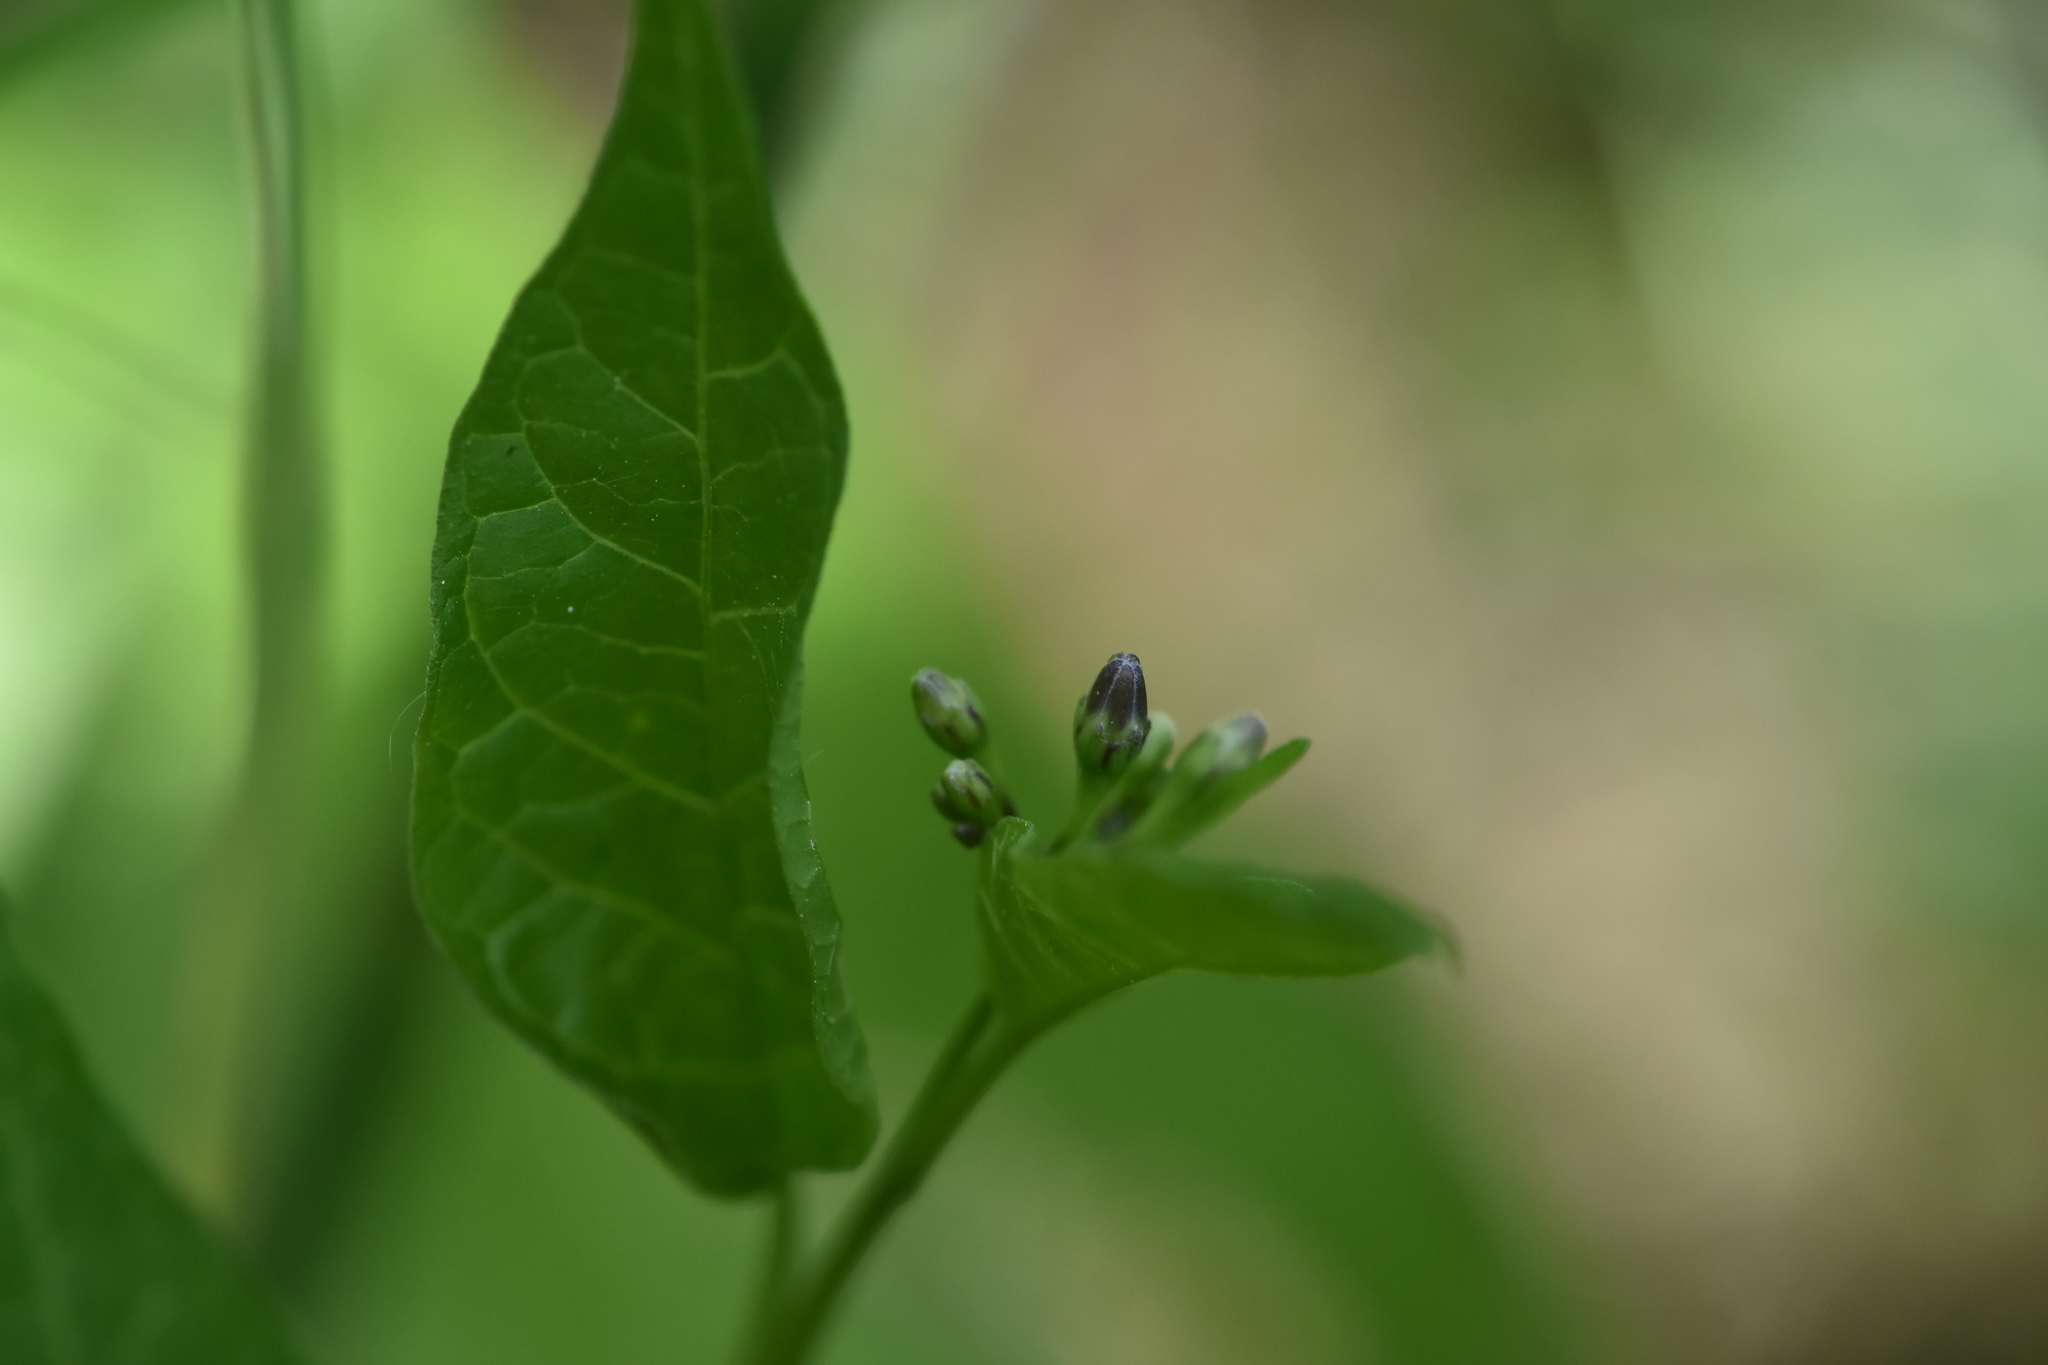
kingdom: Plantae
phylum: Tracheophyta
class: Magnoliopsida
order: Solanales
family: Solanaceae
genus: Solanum
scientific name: Solanum dulcamara
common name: Climbing nightshade
